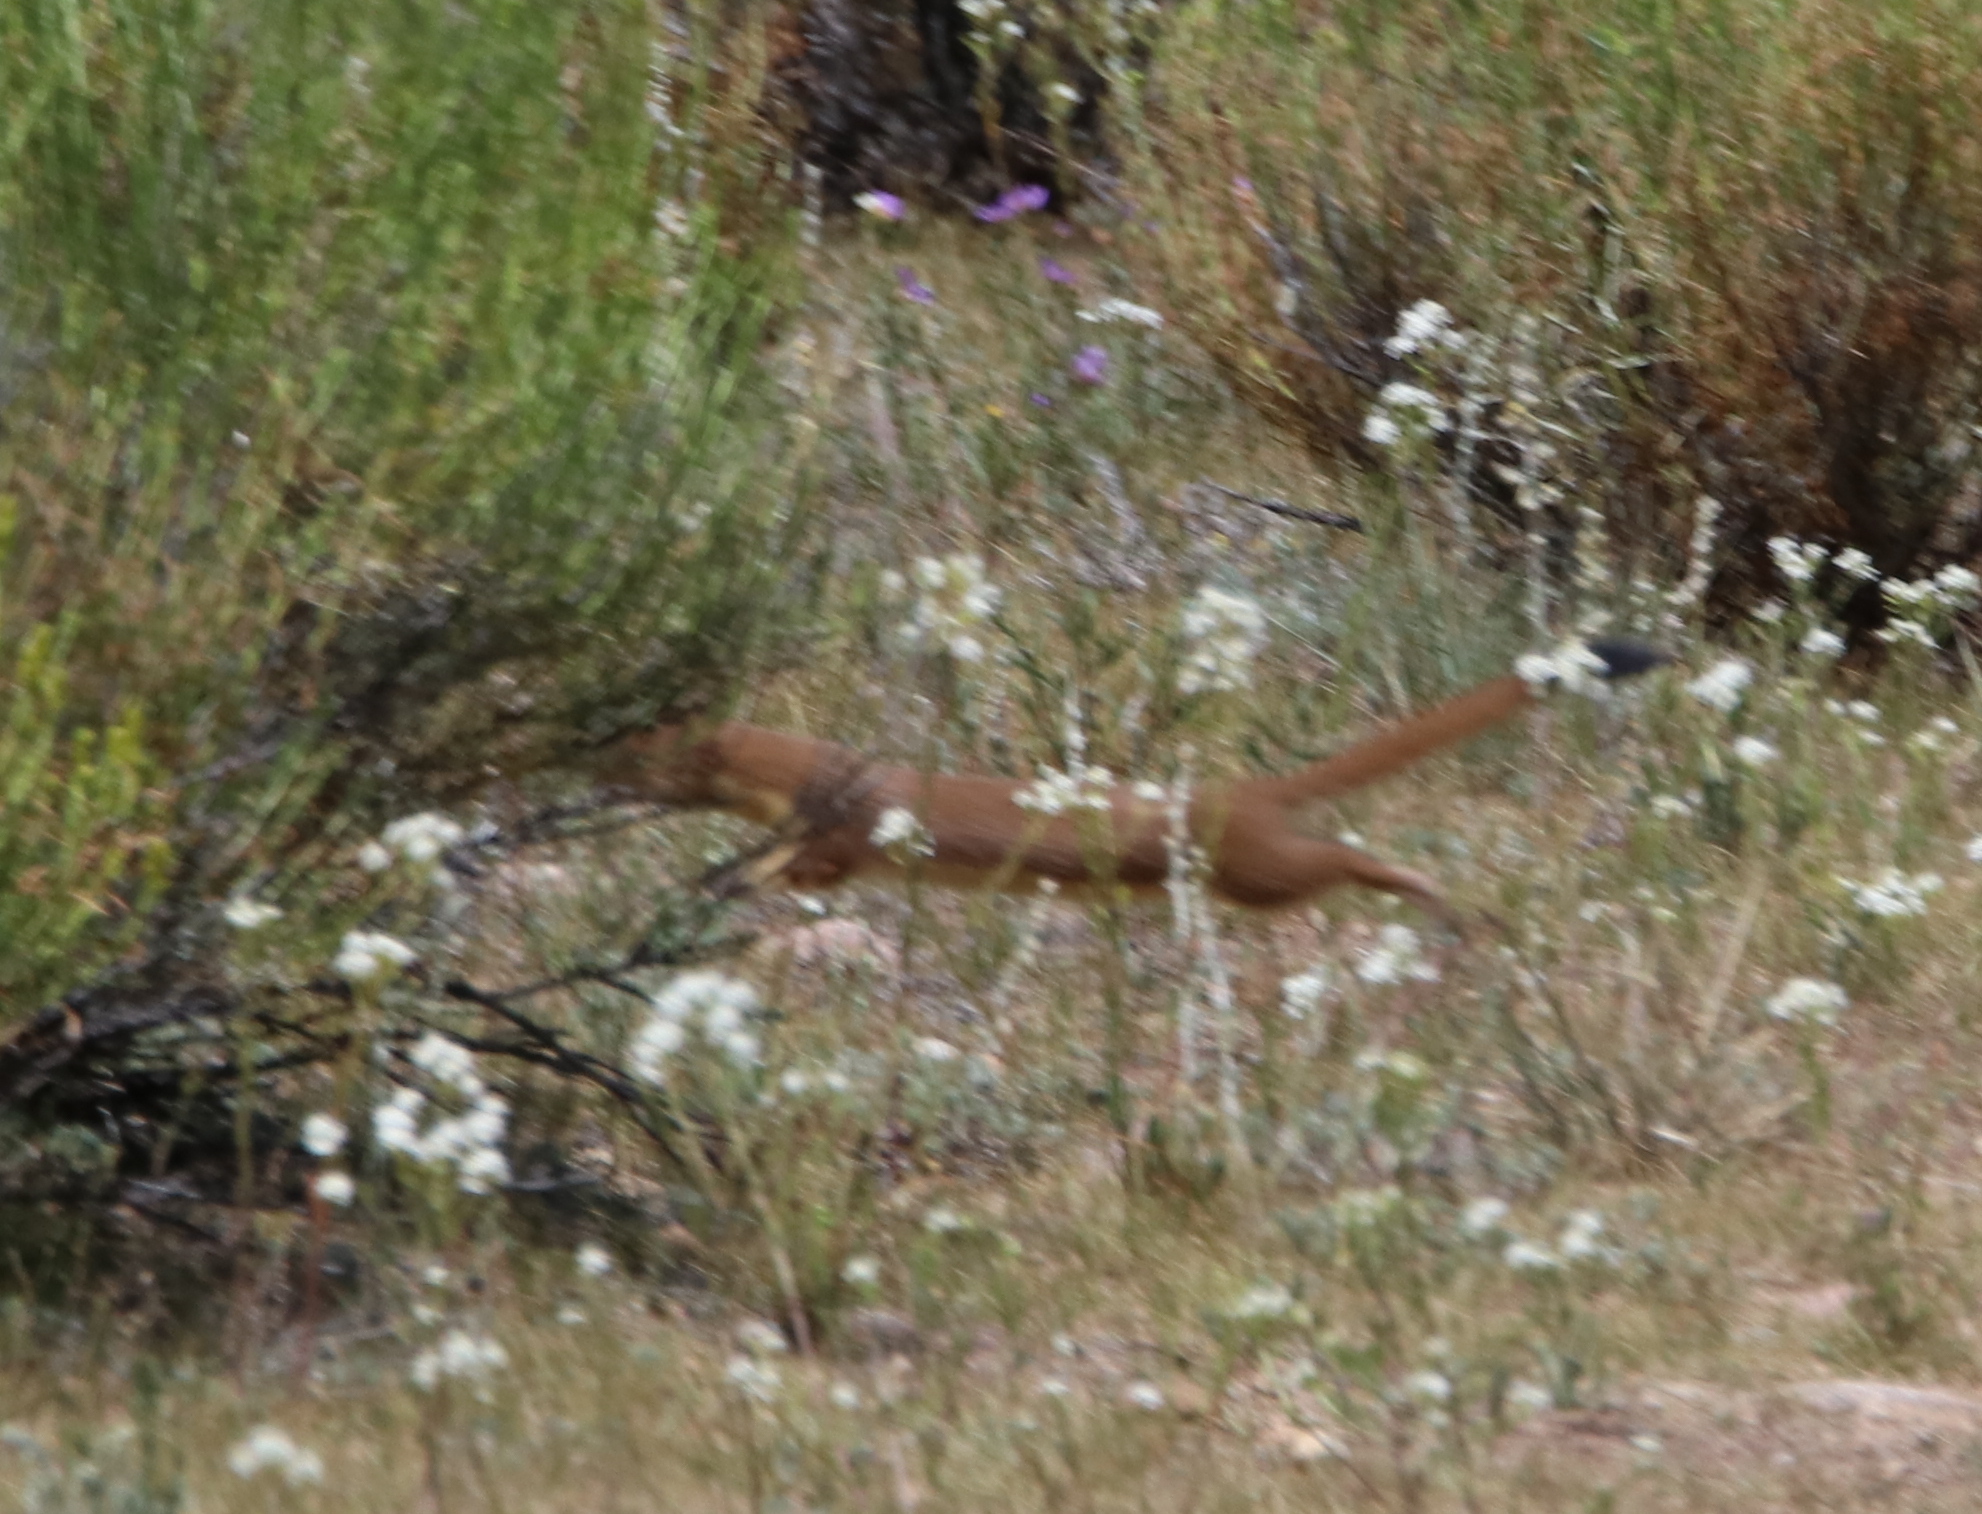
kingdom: Animalia
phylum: Chordata
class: Mammalia
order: Carnivora
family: Mustelidae
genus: Mustela
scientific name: Mustela
